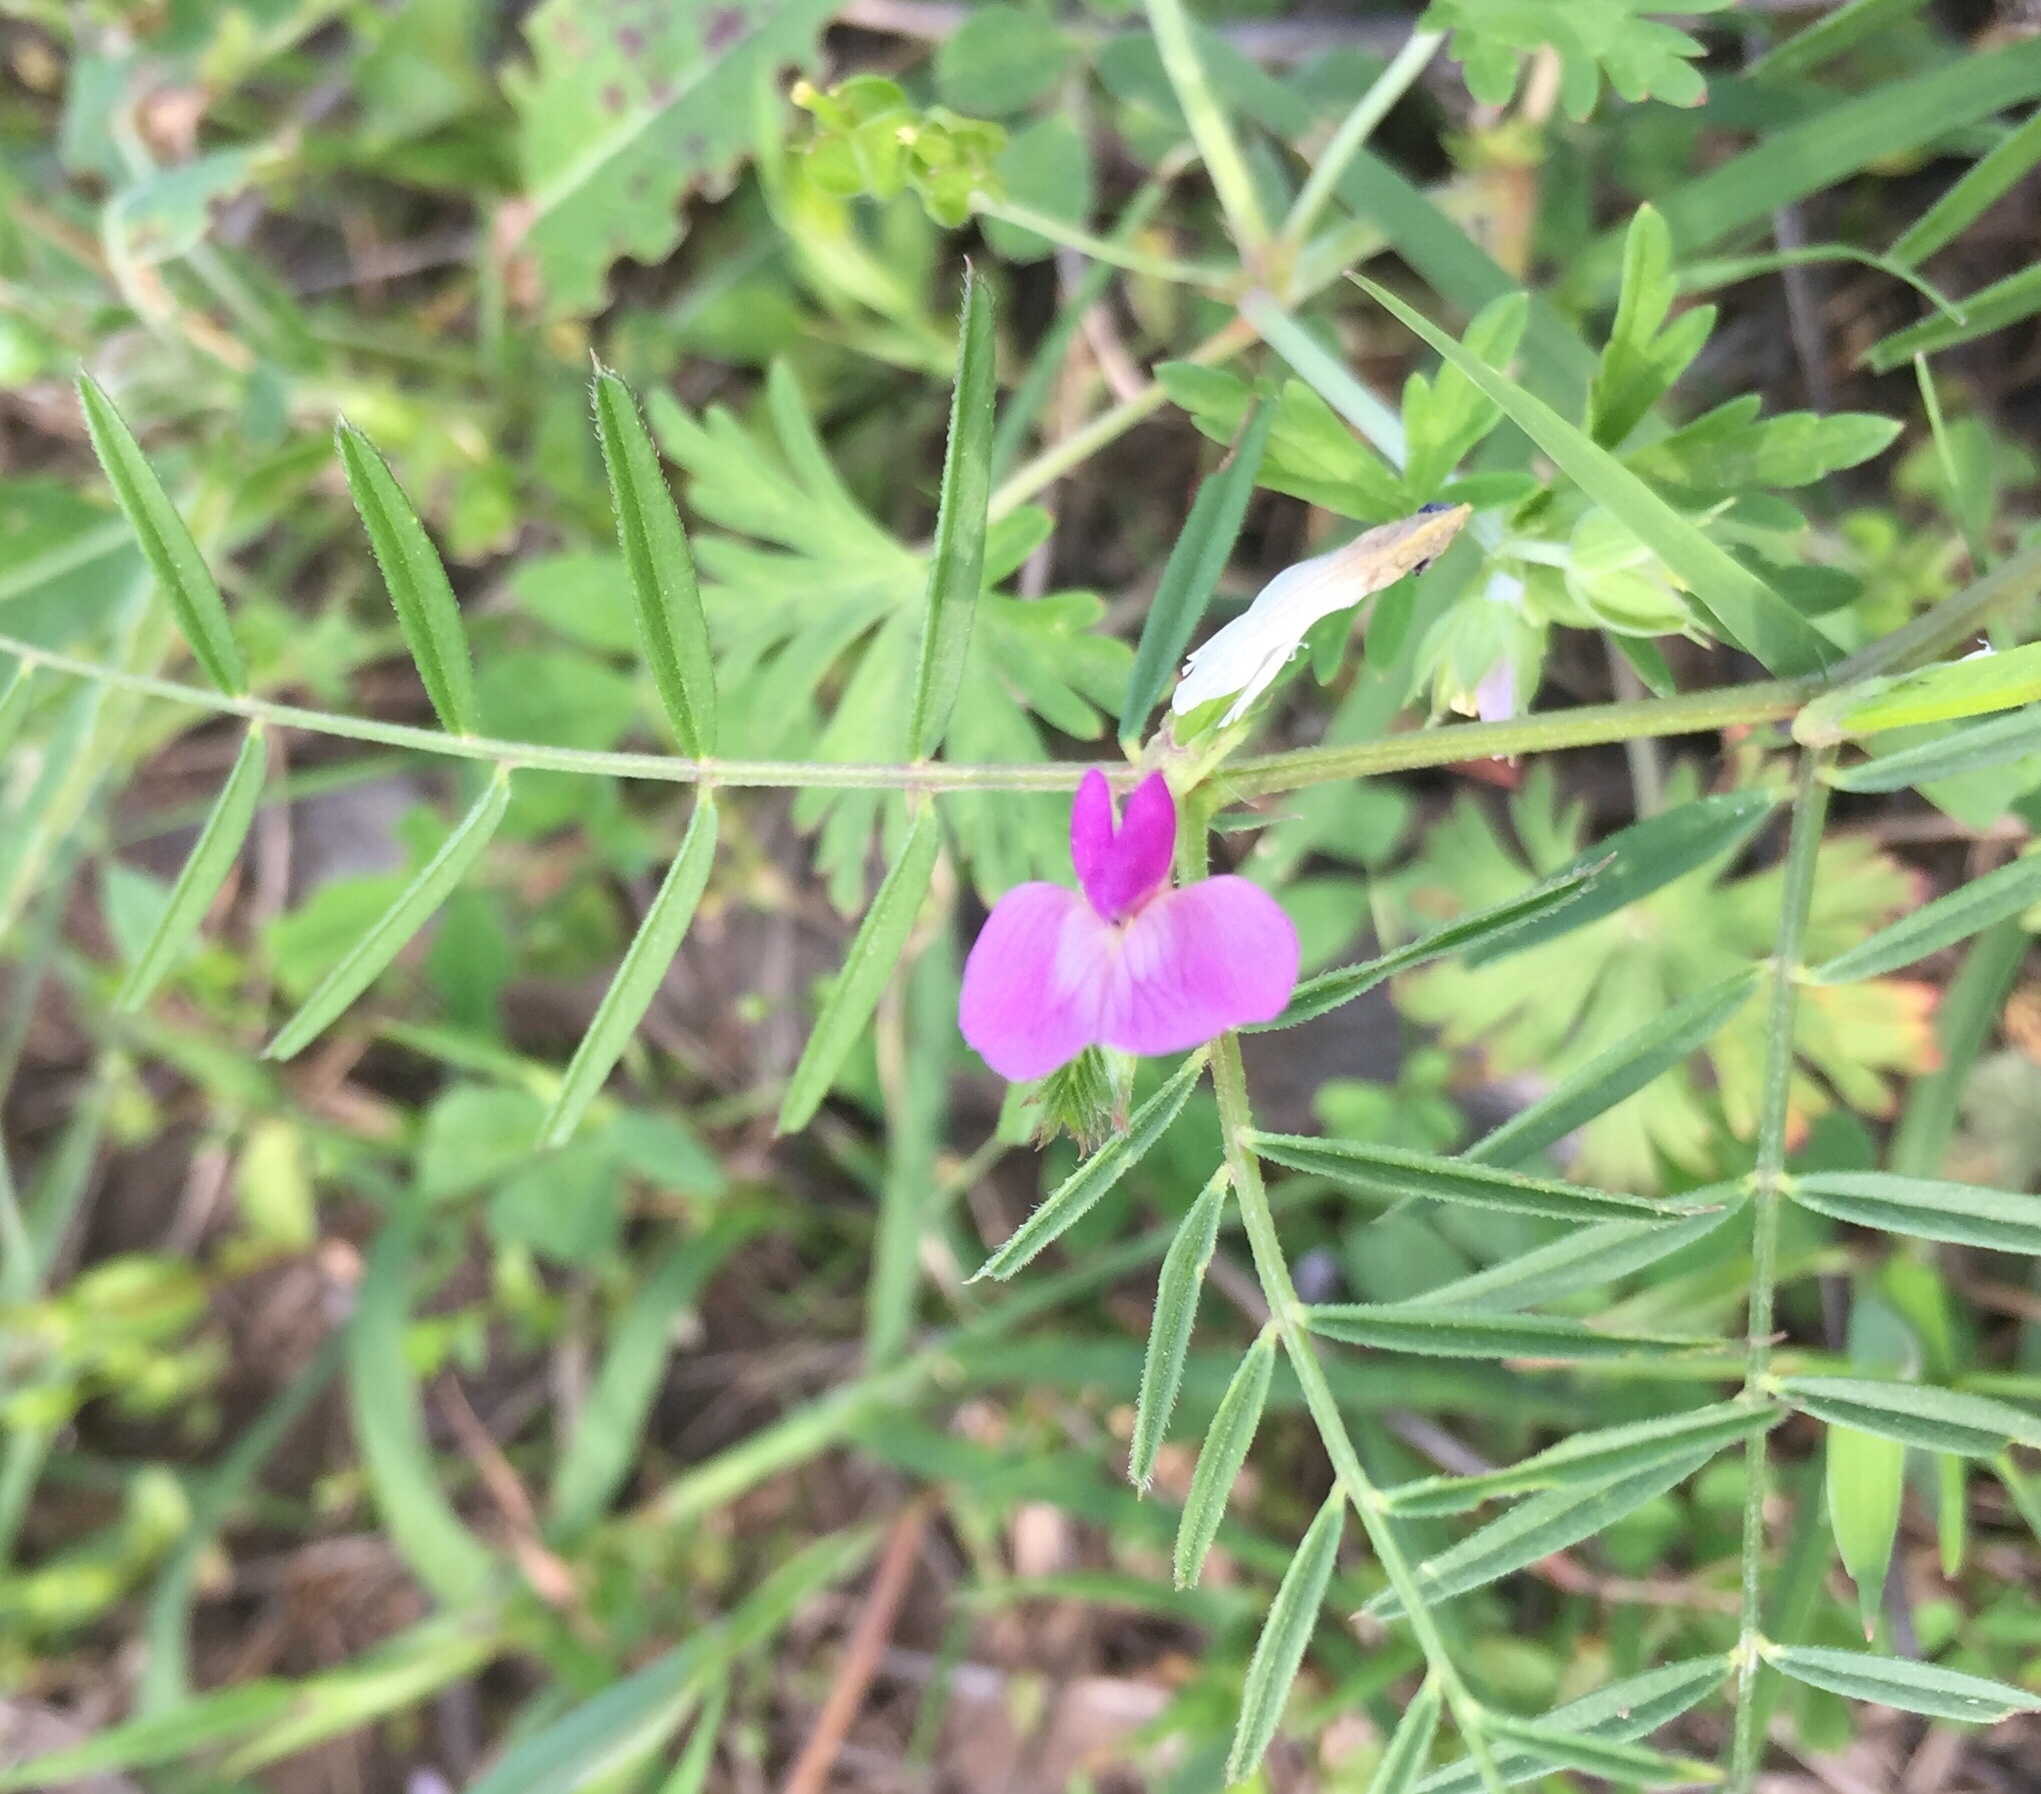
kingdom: Plantae
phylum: Tracheophyta
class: Magnoliopsida
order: Fabales
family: Fabaceae
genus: Vicia
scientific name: Vicia sativa
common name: Garden vetch
